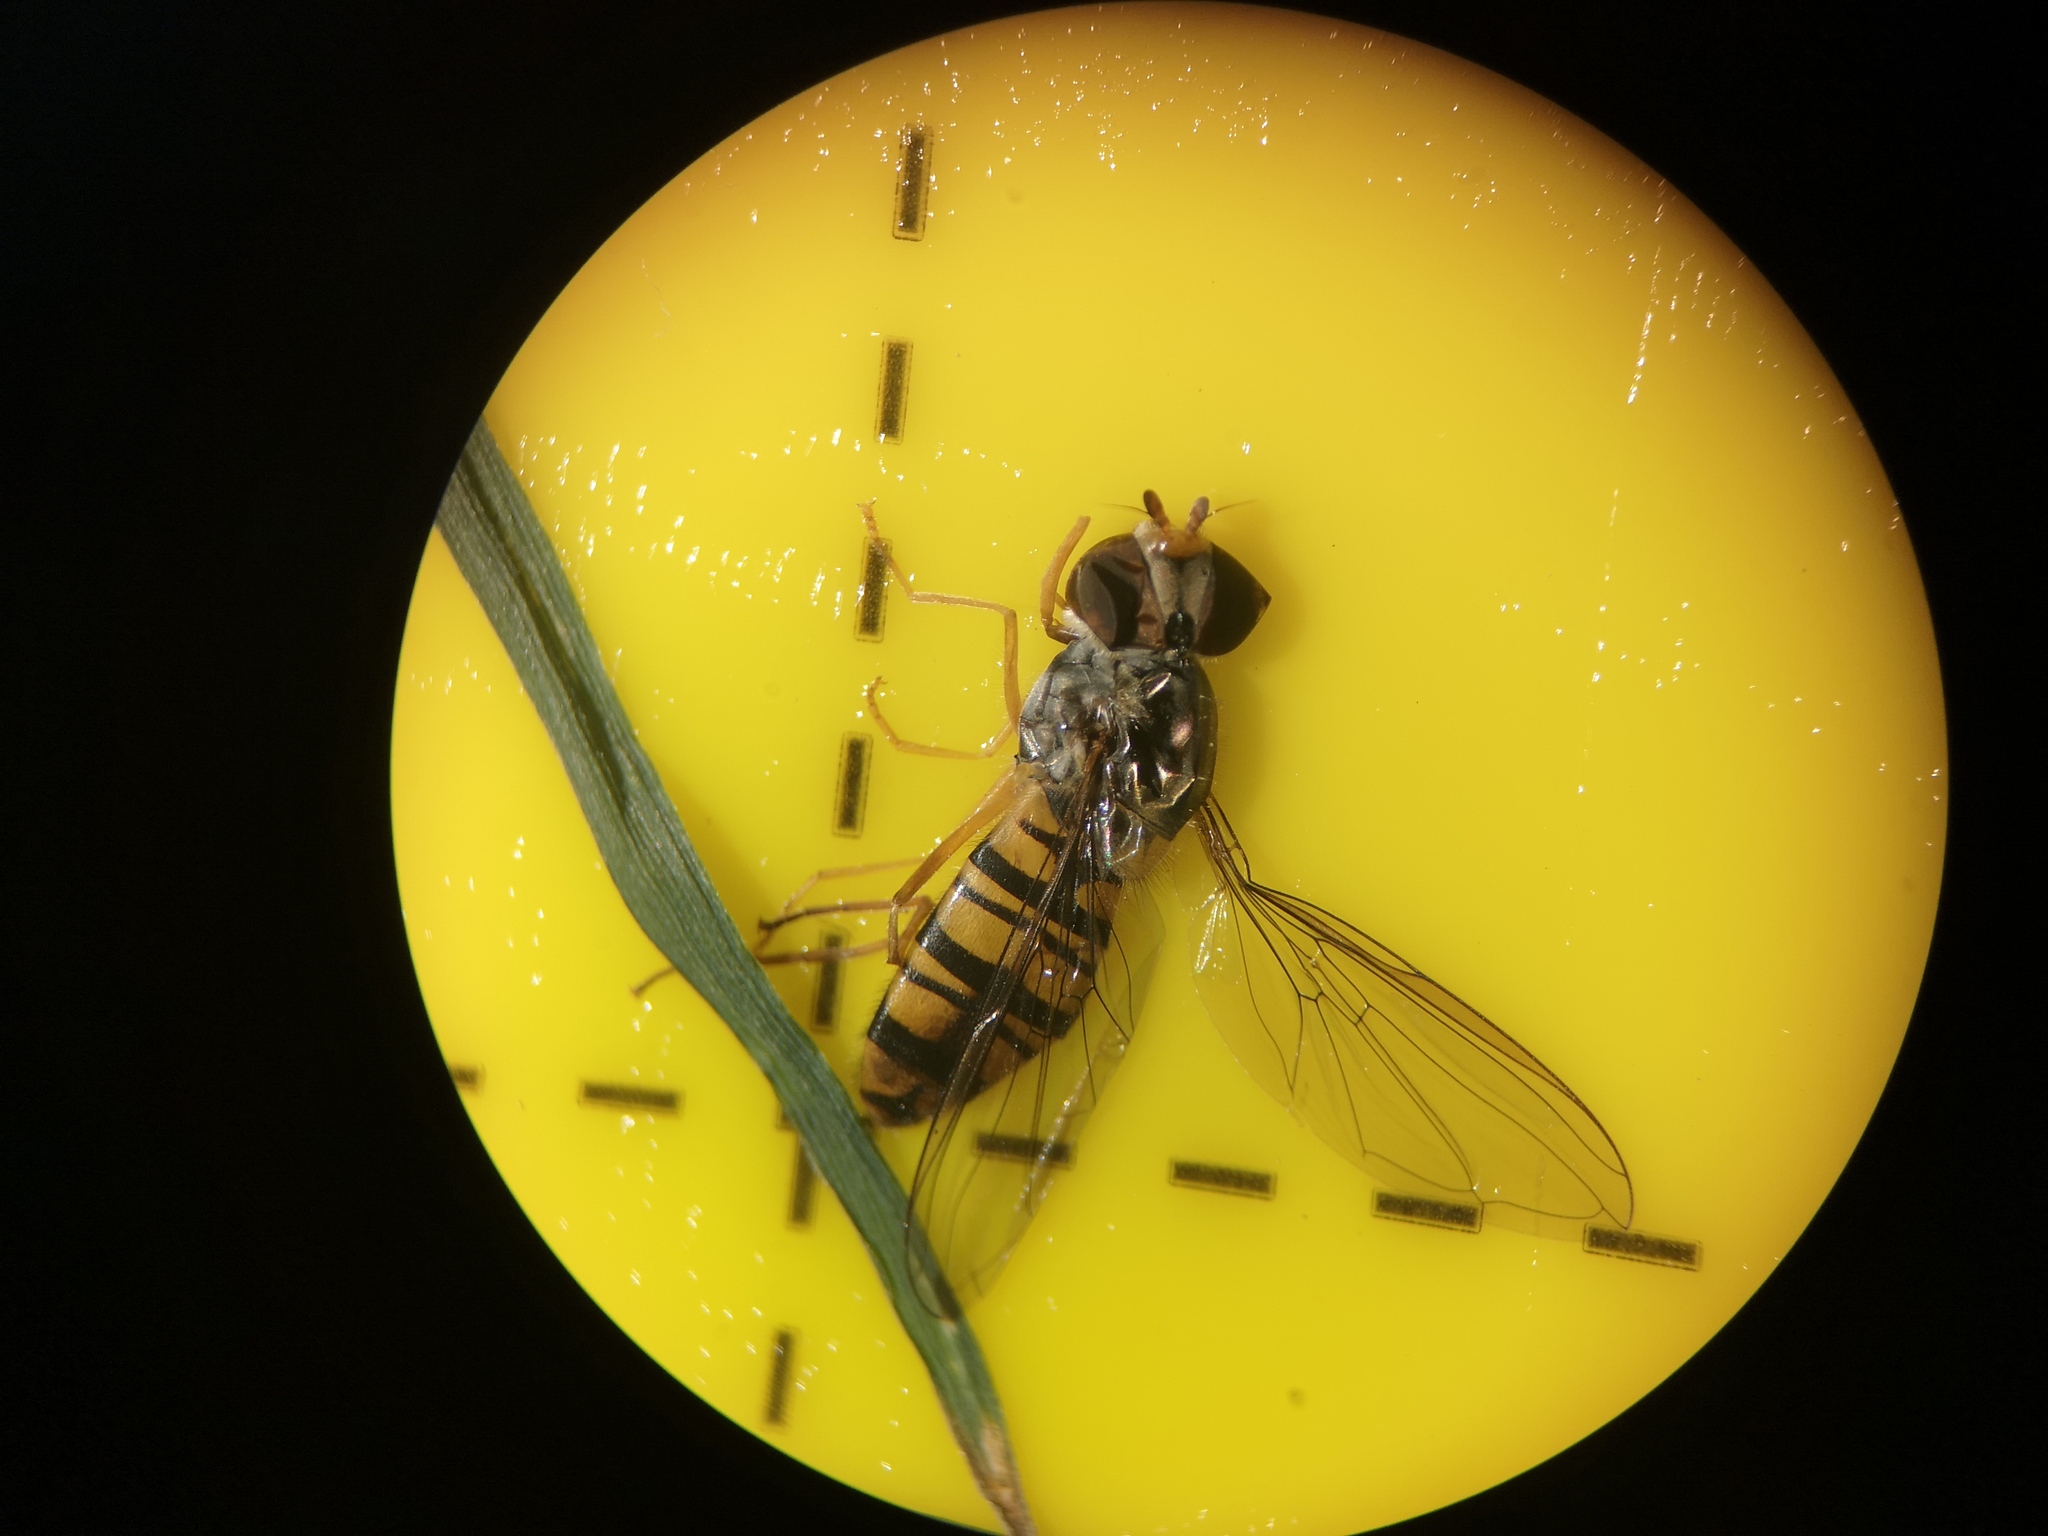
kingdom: Animalia
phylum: Arthropoda
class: Insecta
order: Diptera
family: Syrphidae
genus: Episyrphus
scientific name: Episyrphus balteatus
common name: Marmalade hoverfly
